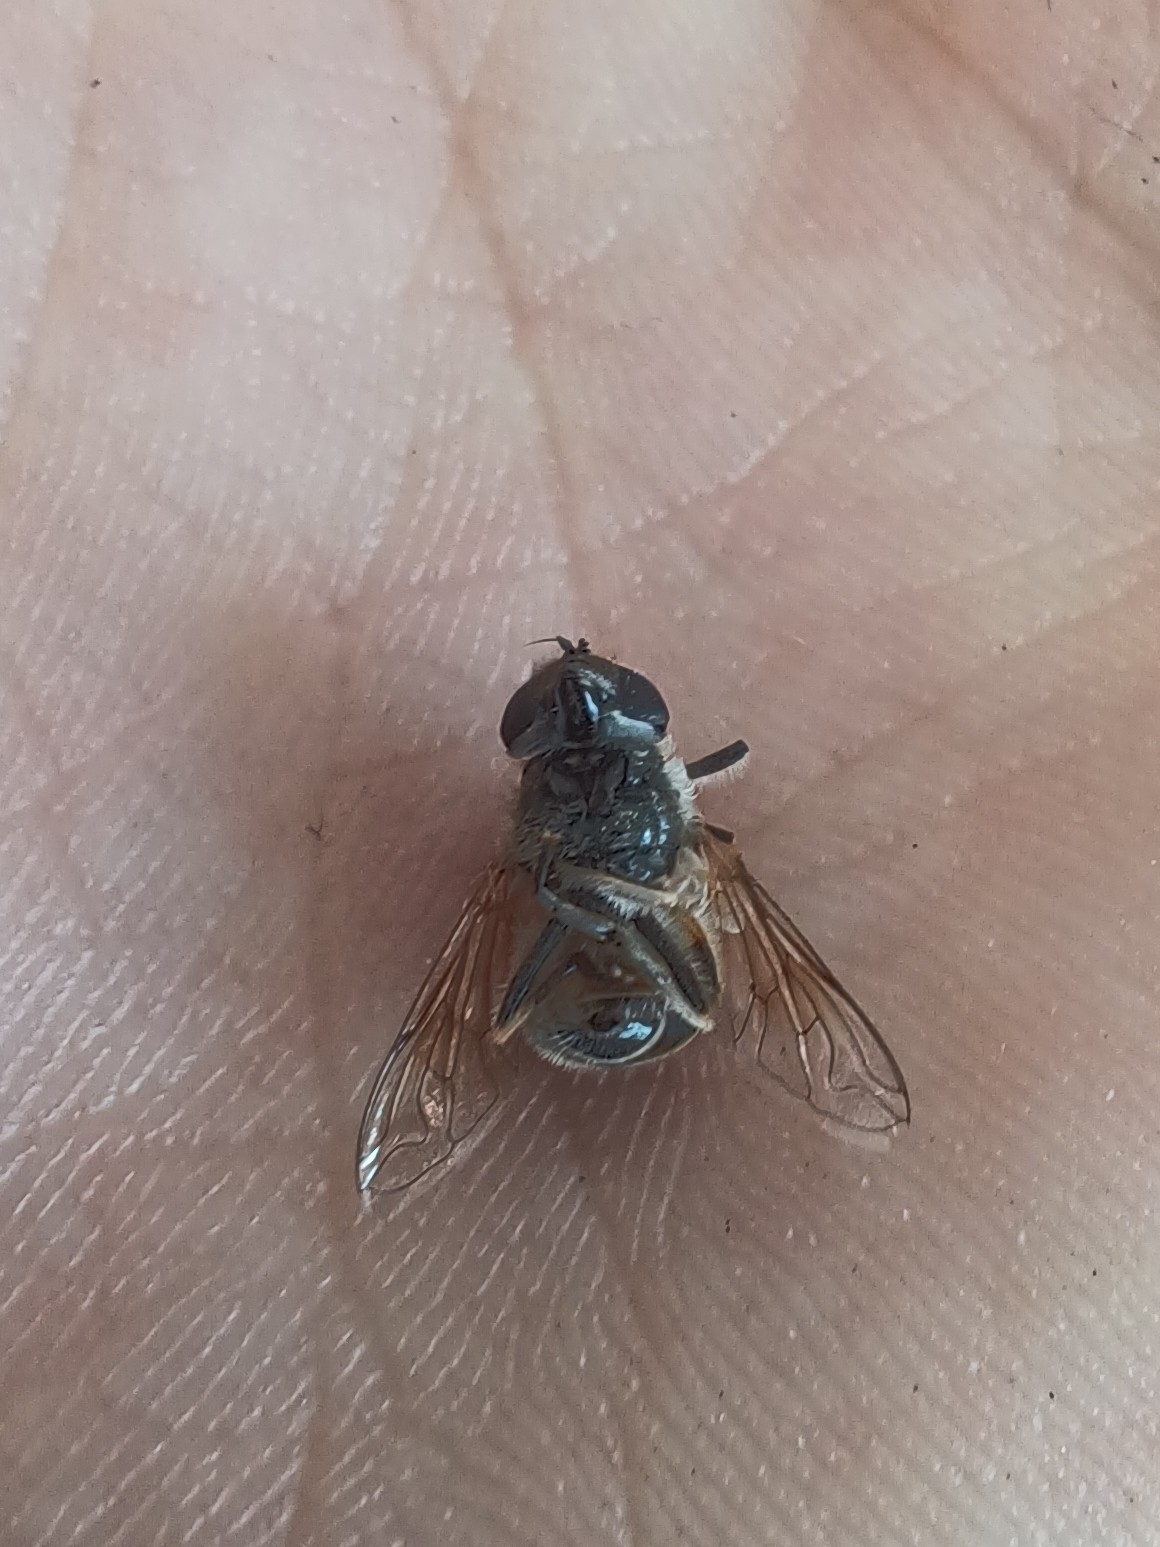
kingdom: Animalia
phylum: Arthropoda
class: Insecta
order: Diptera
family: Syrphidae
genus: Eoseristalis
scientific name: Eoseristalis
